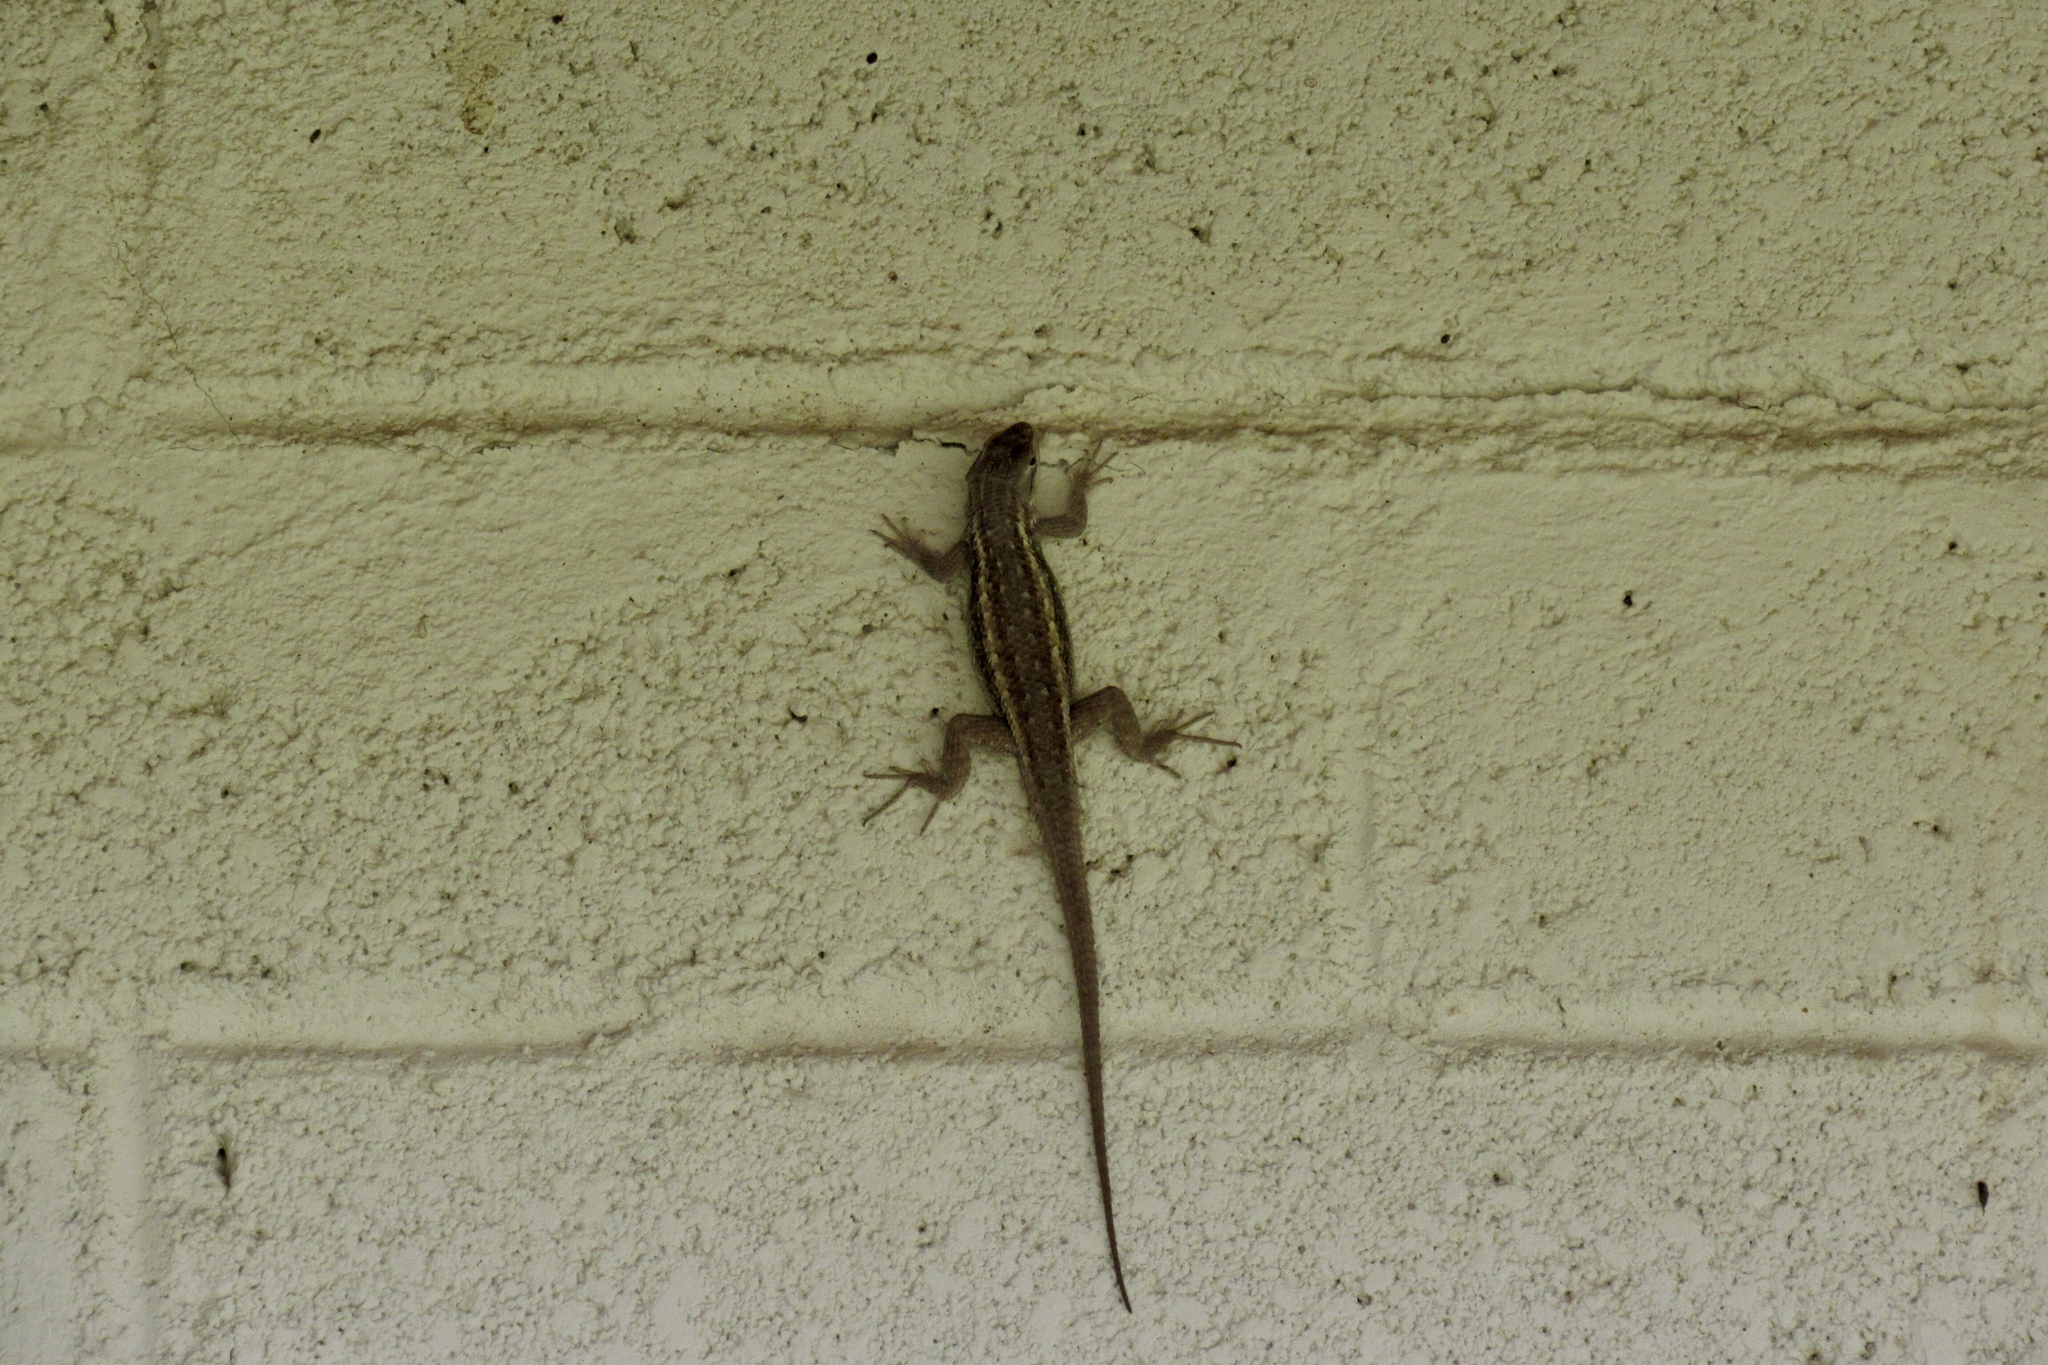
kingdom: Animalia
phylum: Chordata
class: Squamata
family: Phrynosomatidae
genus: Sceloporus
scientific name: Sceloporus cowlesi
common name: White sands prairie lizard
